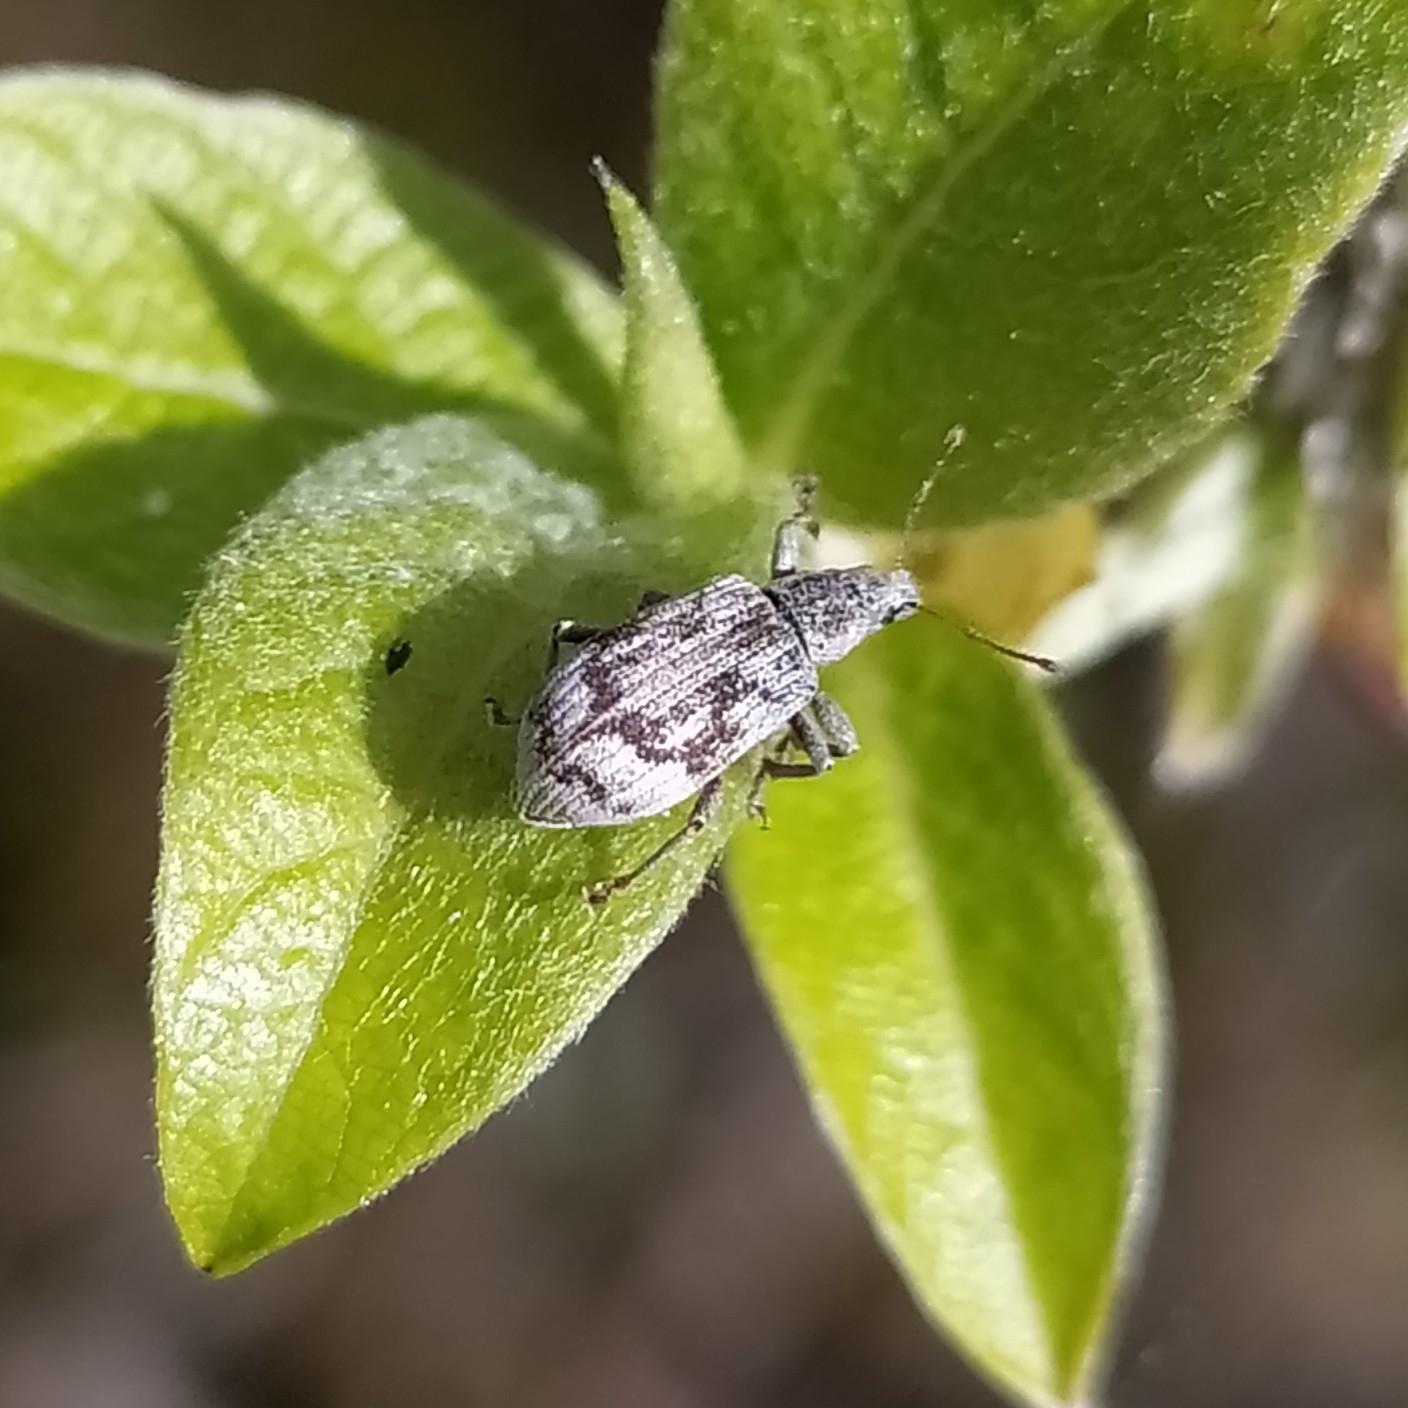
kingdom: Animalia
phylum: Arthropoda
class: Insecta
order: Coleoptera
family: Curculionidae
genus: Polydrusus
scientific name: Polydrusus tereticollis
